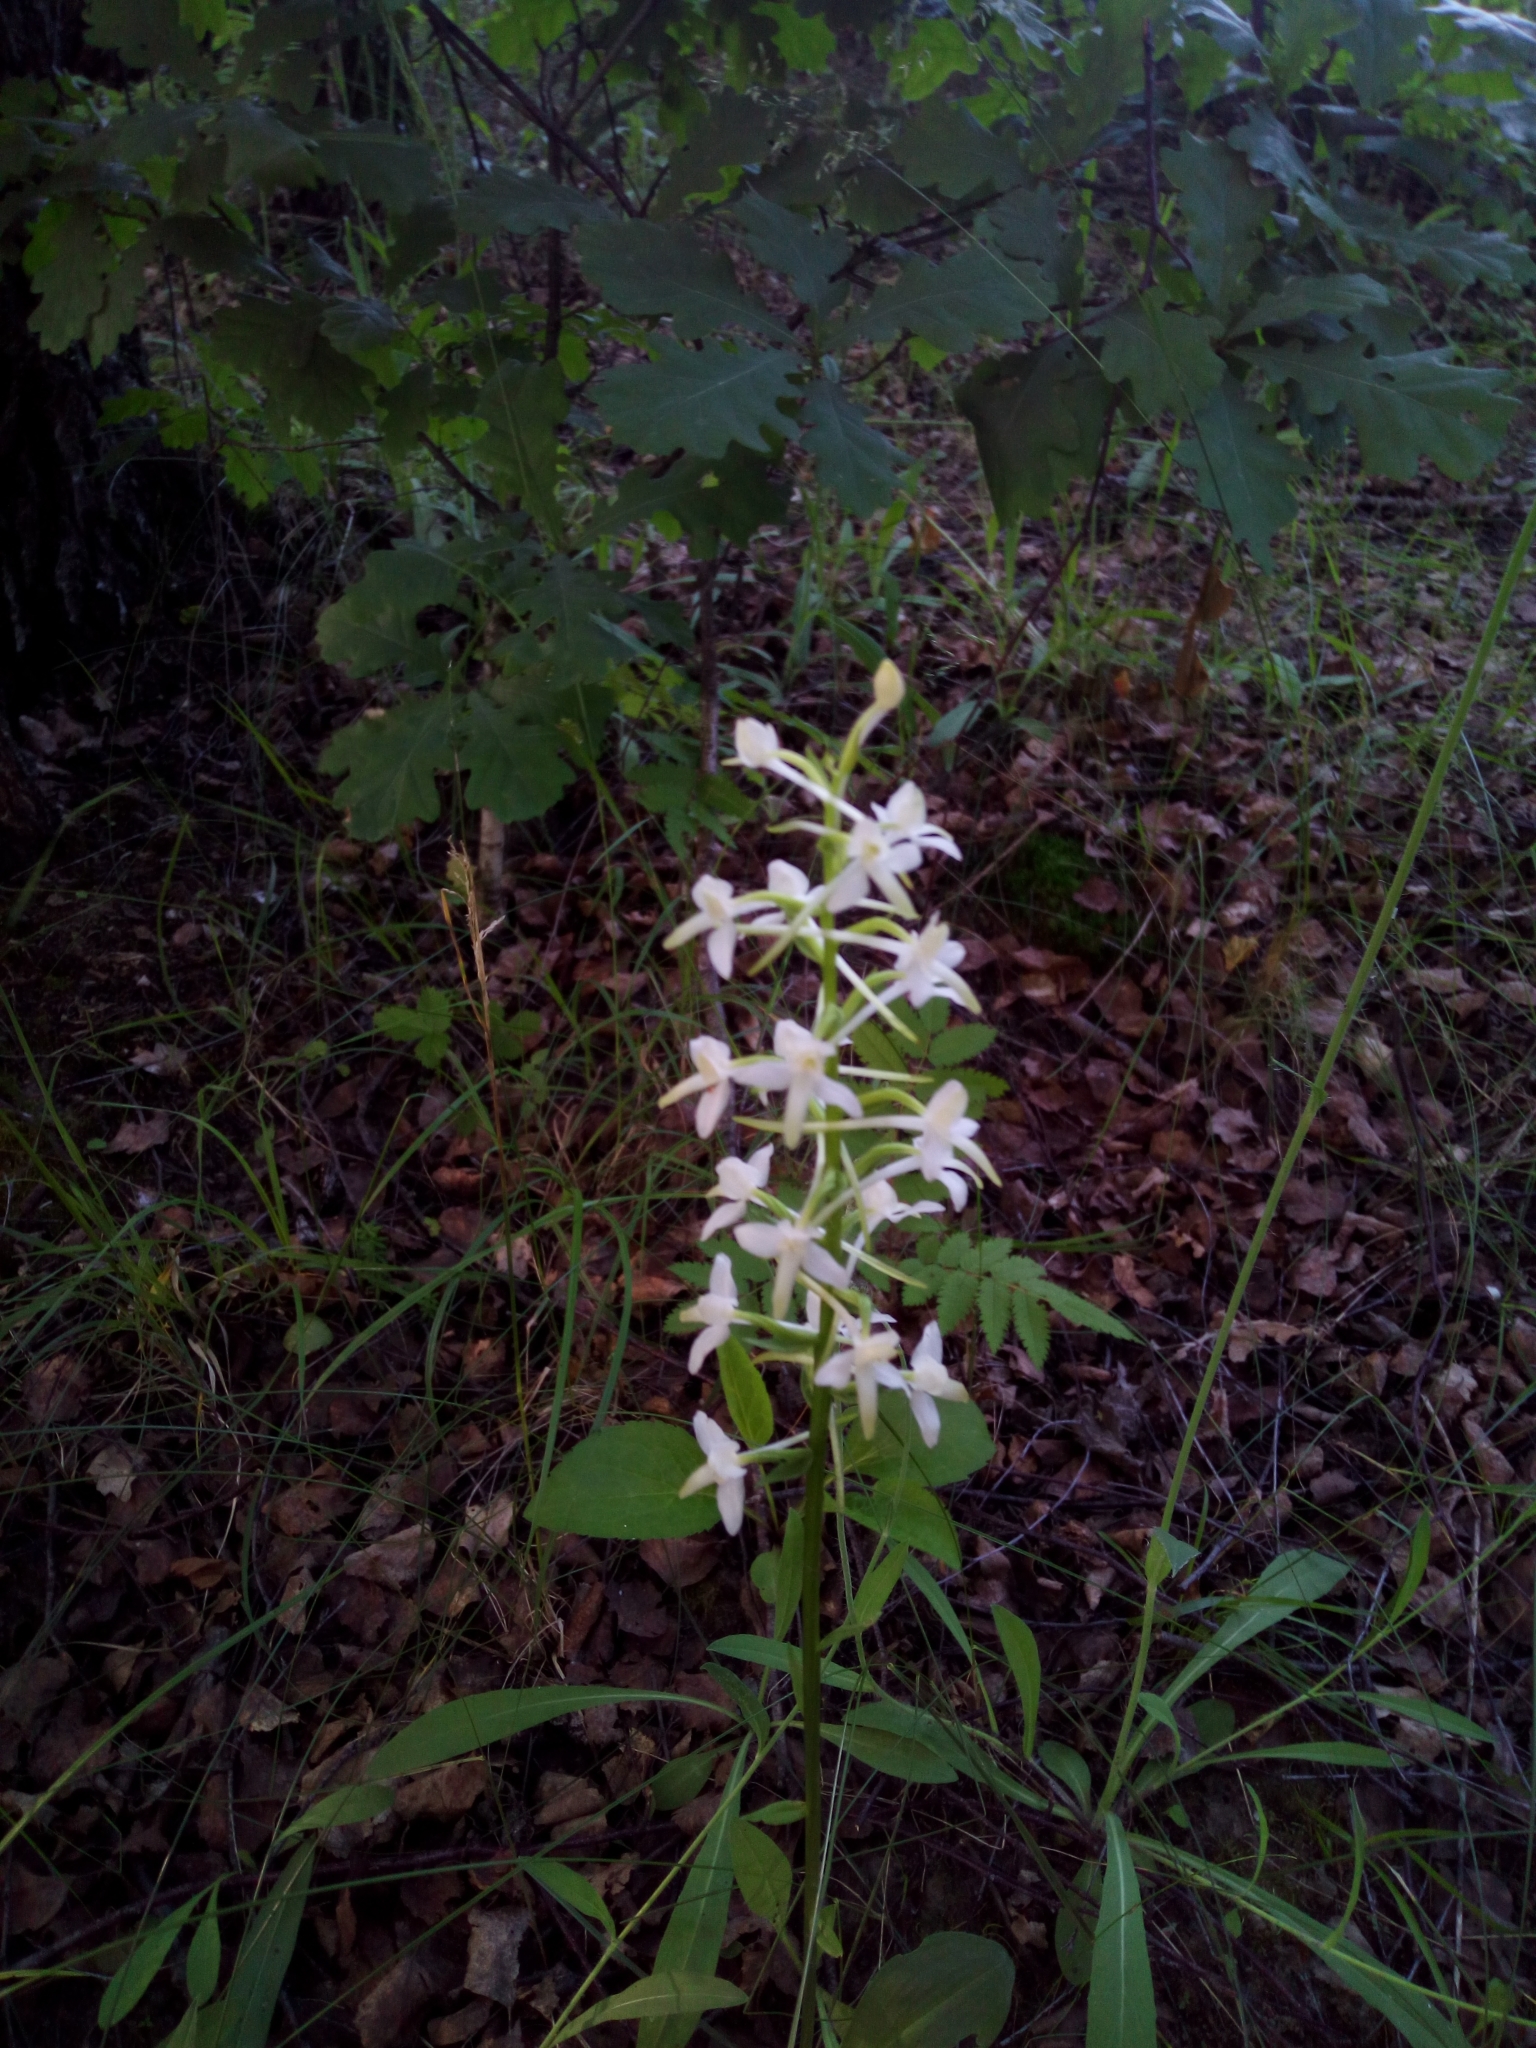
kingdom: Plantae
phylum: Tracheophyta
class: Liliopsida
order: Asparagales
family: Orchidaceae
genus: Platanthera
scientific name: Platanthera bifolia
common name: Lesser butterfly-orchid
